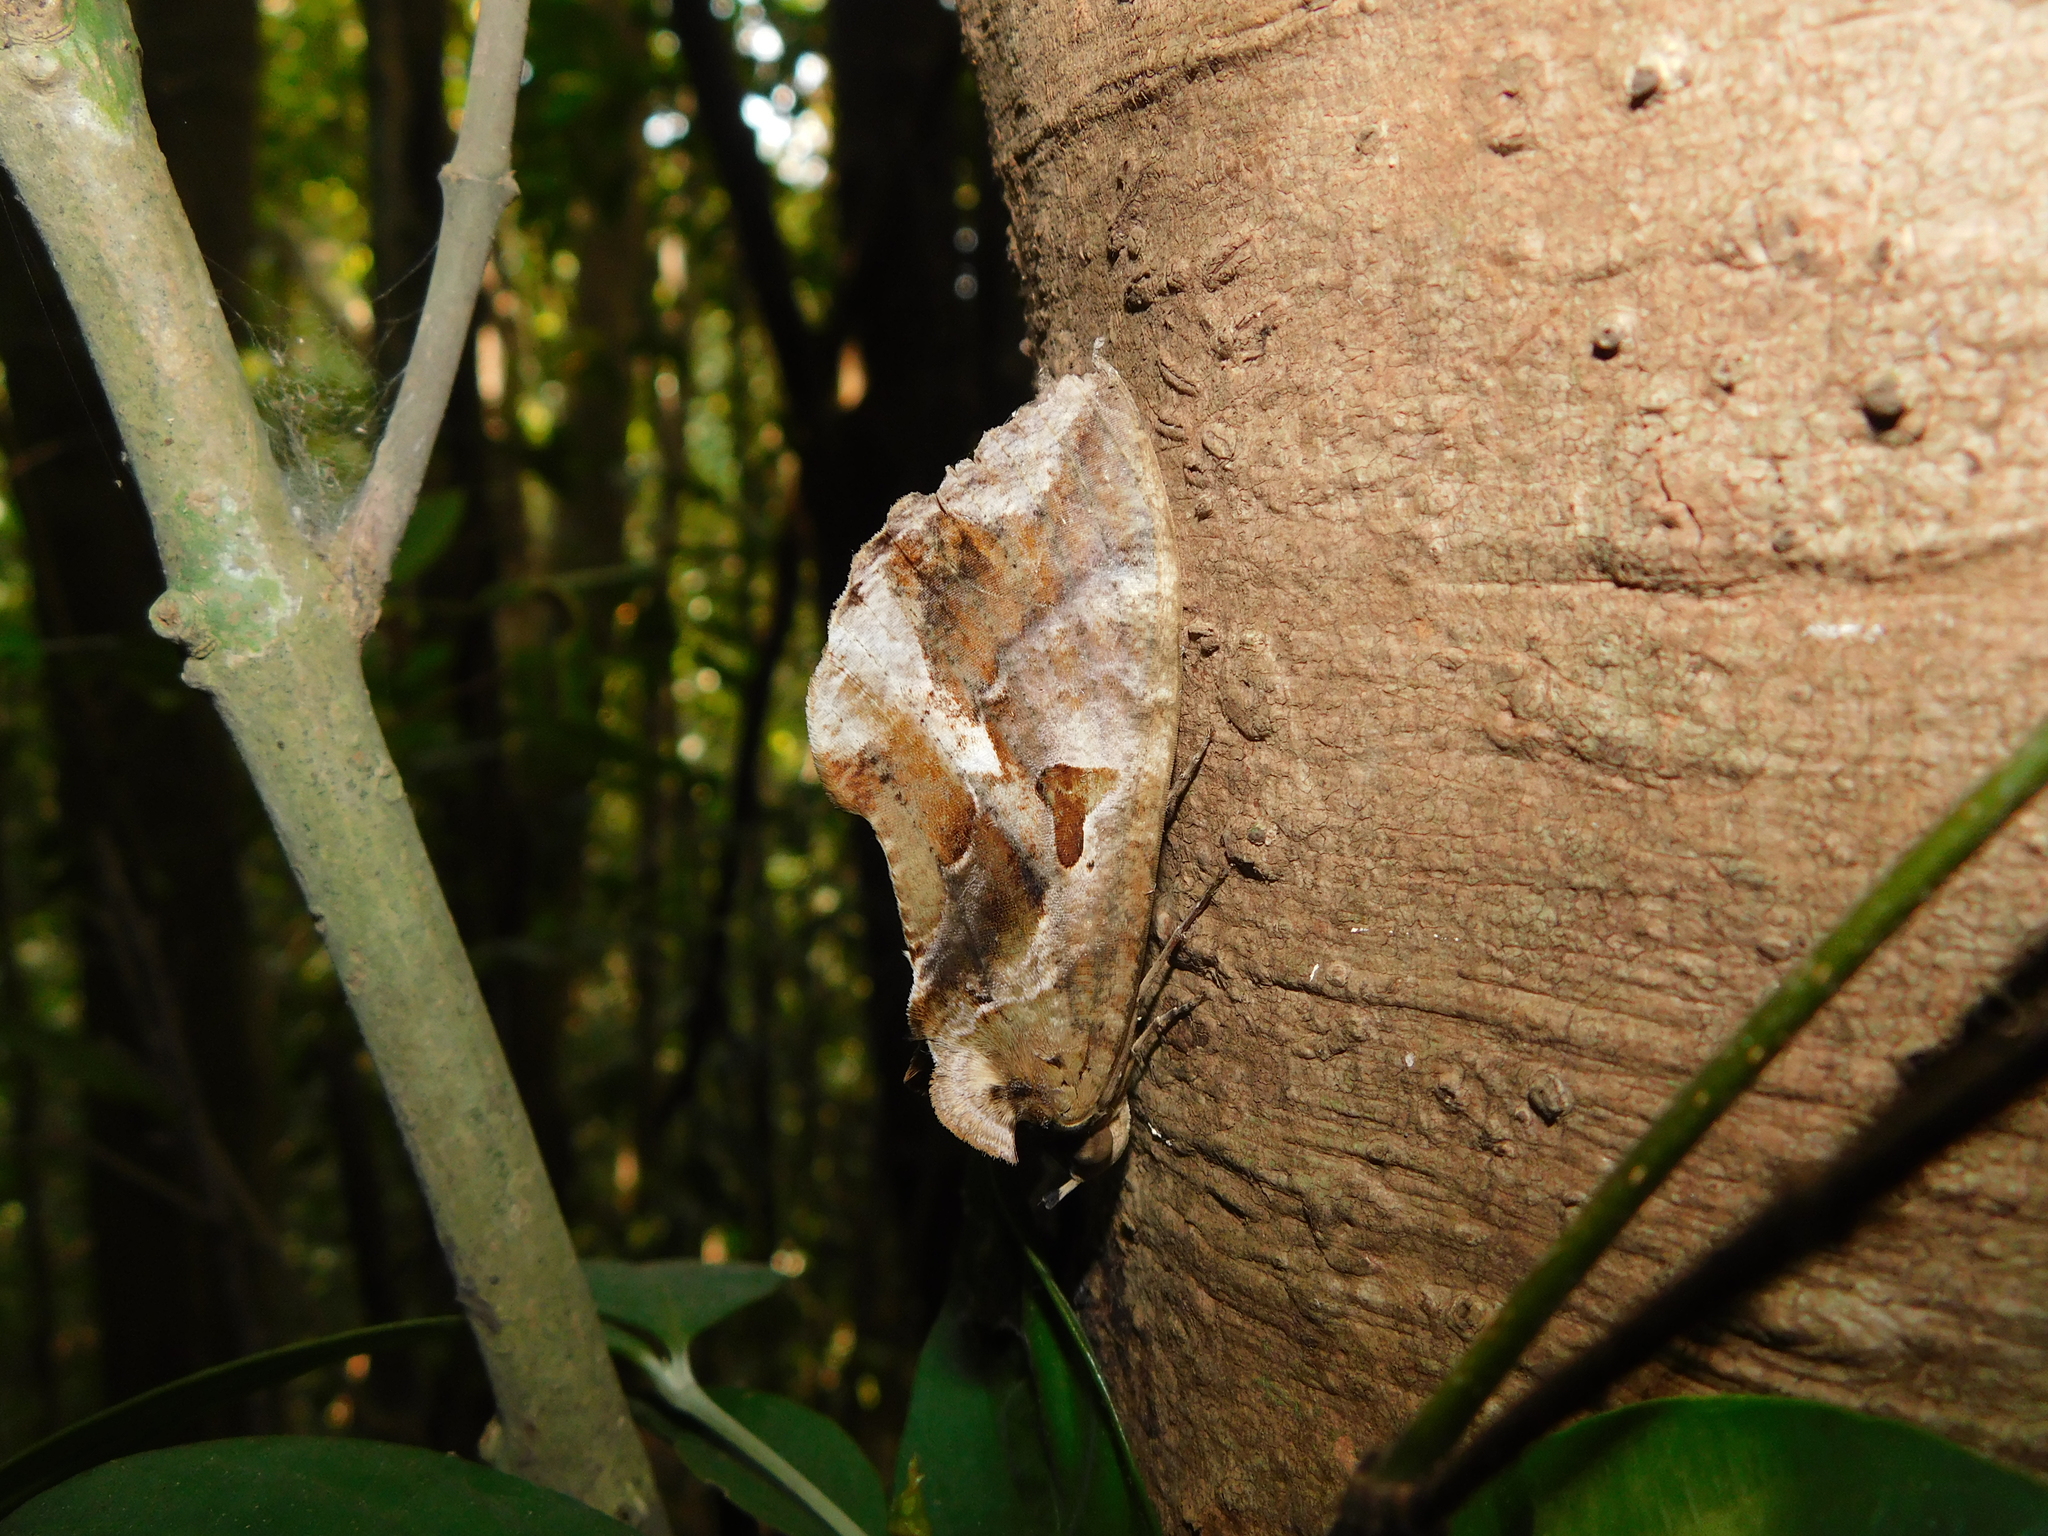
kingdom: Animalia
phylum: Arthropoda
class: Insecta
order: Lepidoptera
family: Erebidae
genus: Eudocima
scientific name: Eudocima phalonia
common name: Wasp
